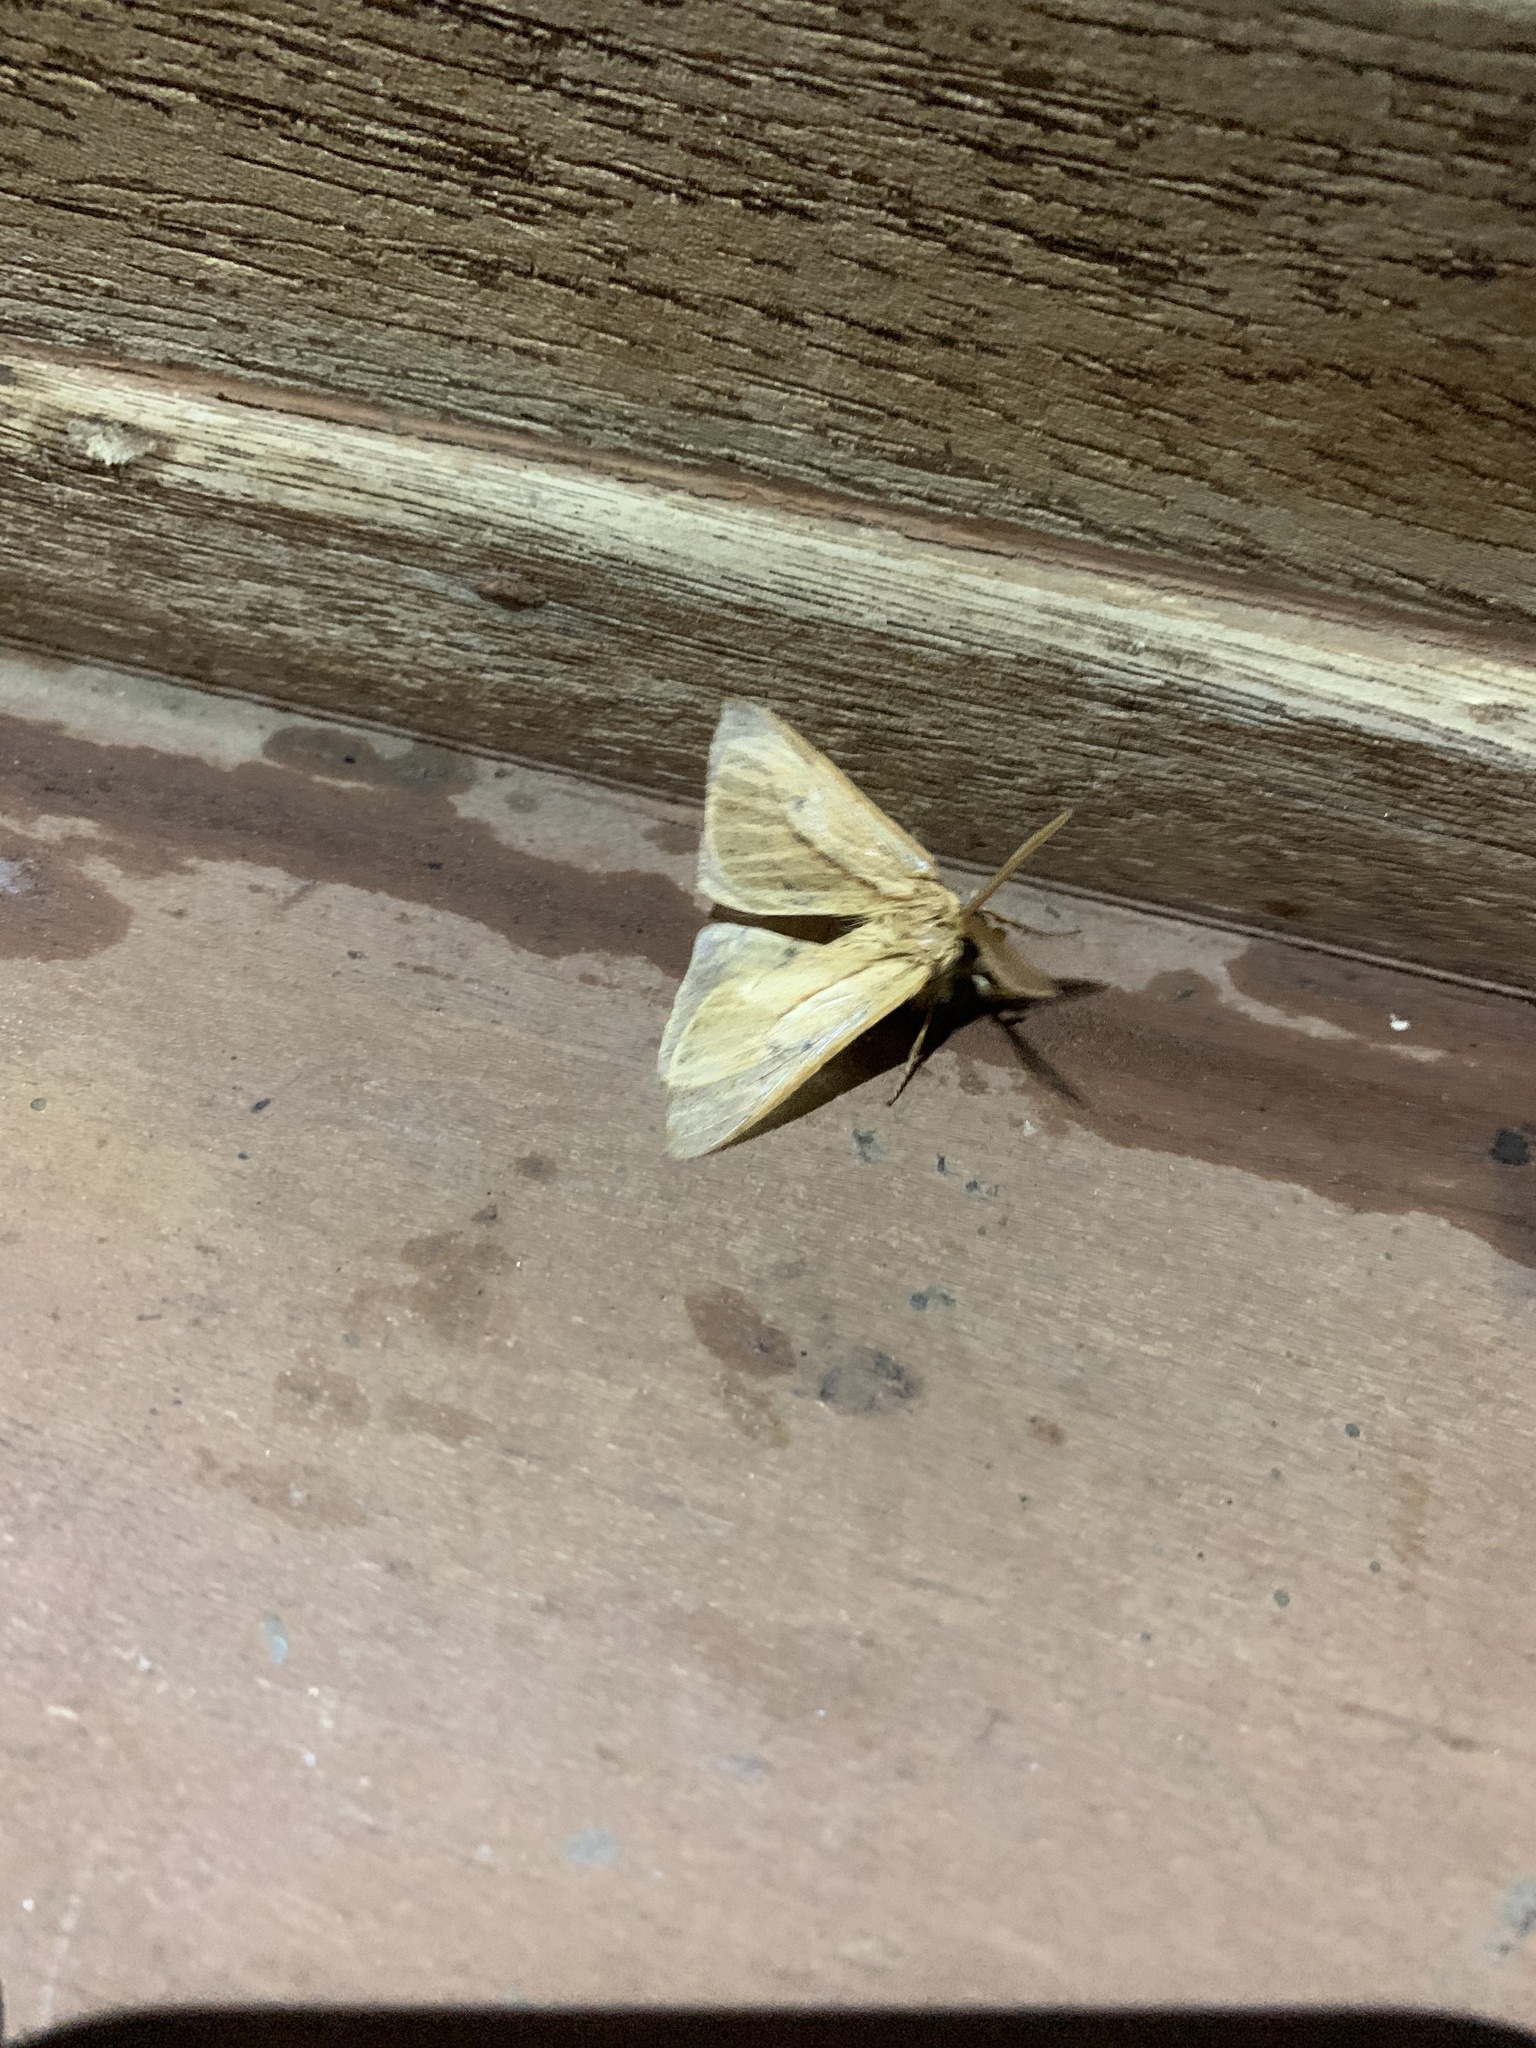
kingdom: Animalia
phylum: Arthropoda
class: Insecta
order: Lepidoptera
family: Saturniidae
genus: Cinommata
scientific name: Cinommata bistrigata
